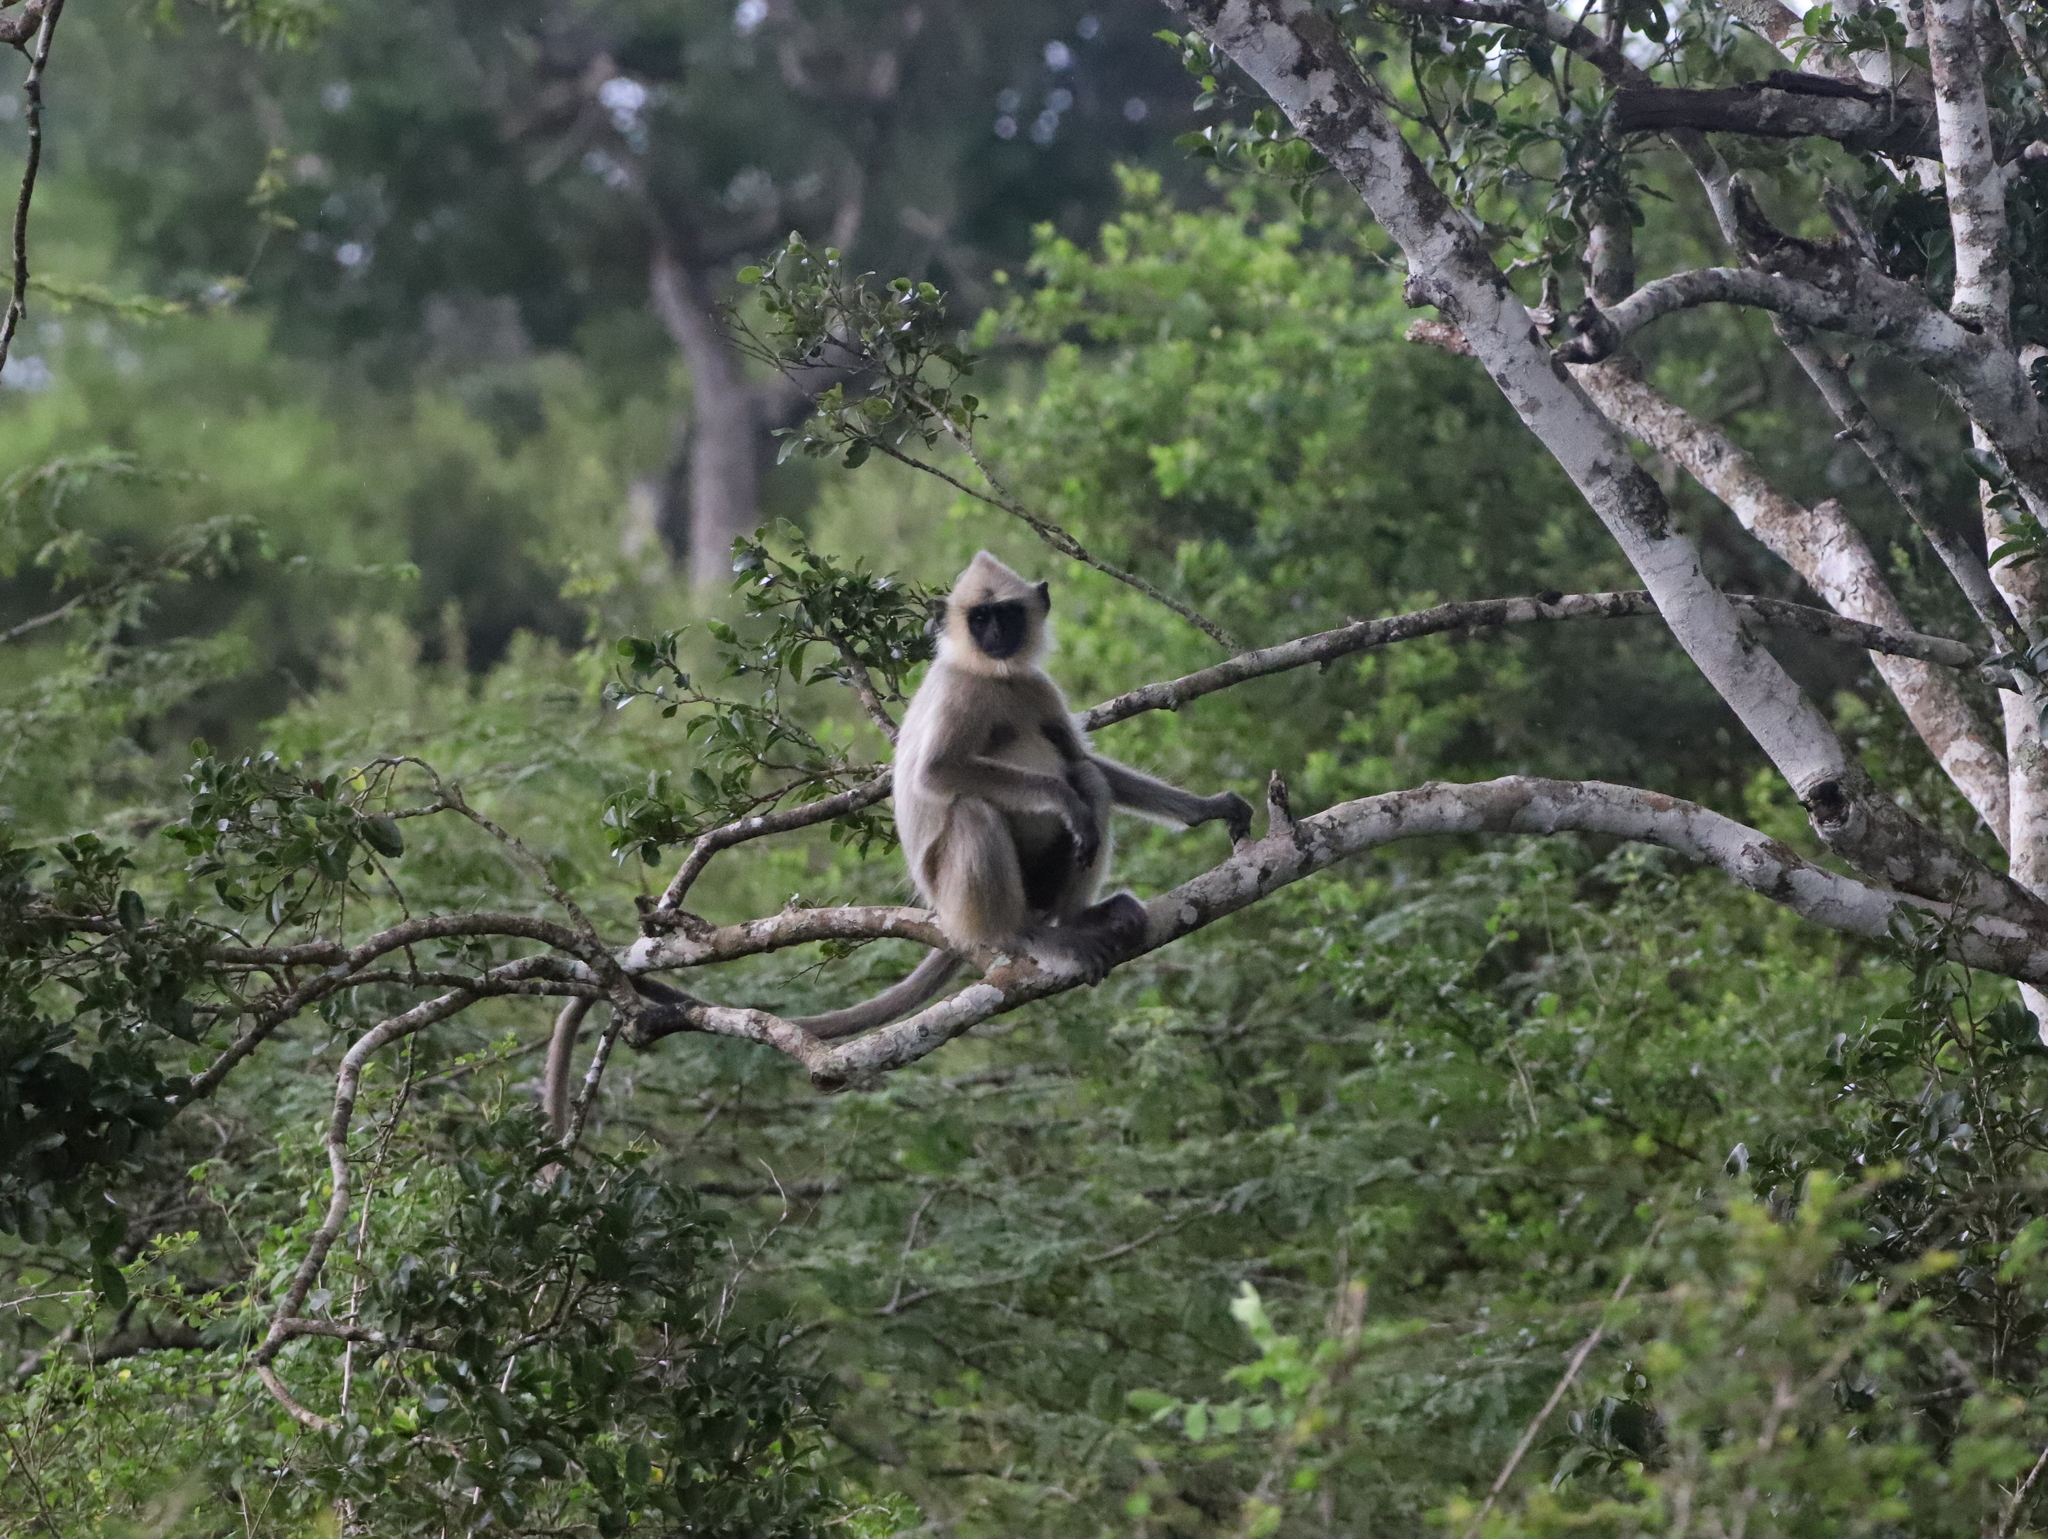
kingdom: Animalia
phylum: Chordata
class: Mammalia
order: Primates
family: Cercopithecidae
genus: Semnopithecus
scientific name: Semnopithecus priam
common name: Tufted gray langur
